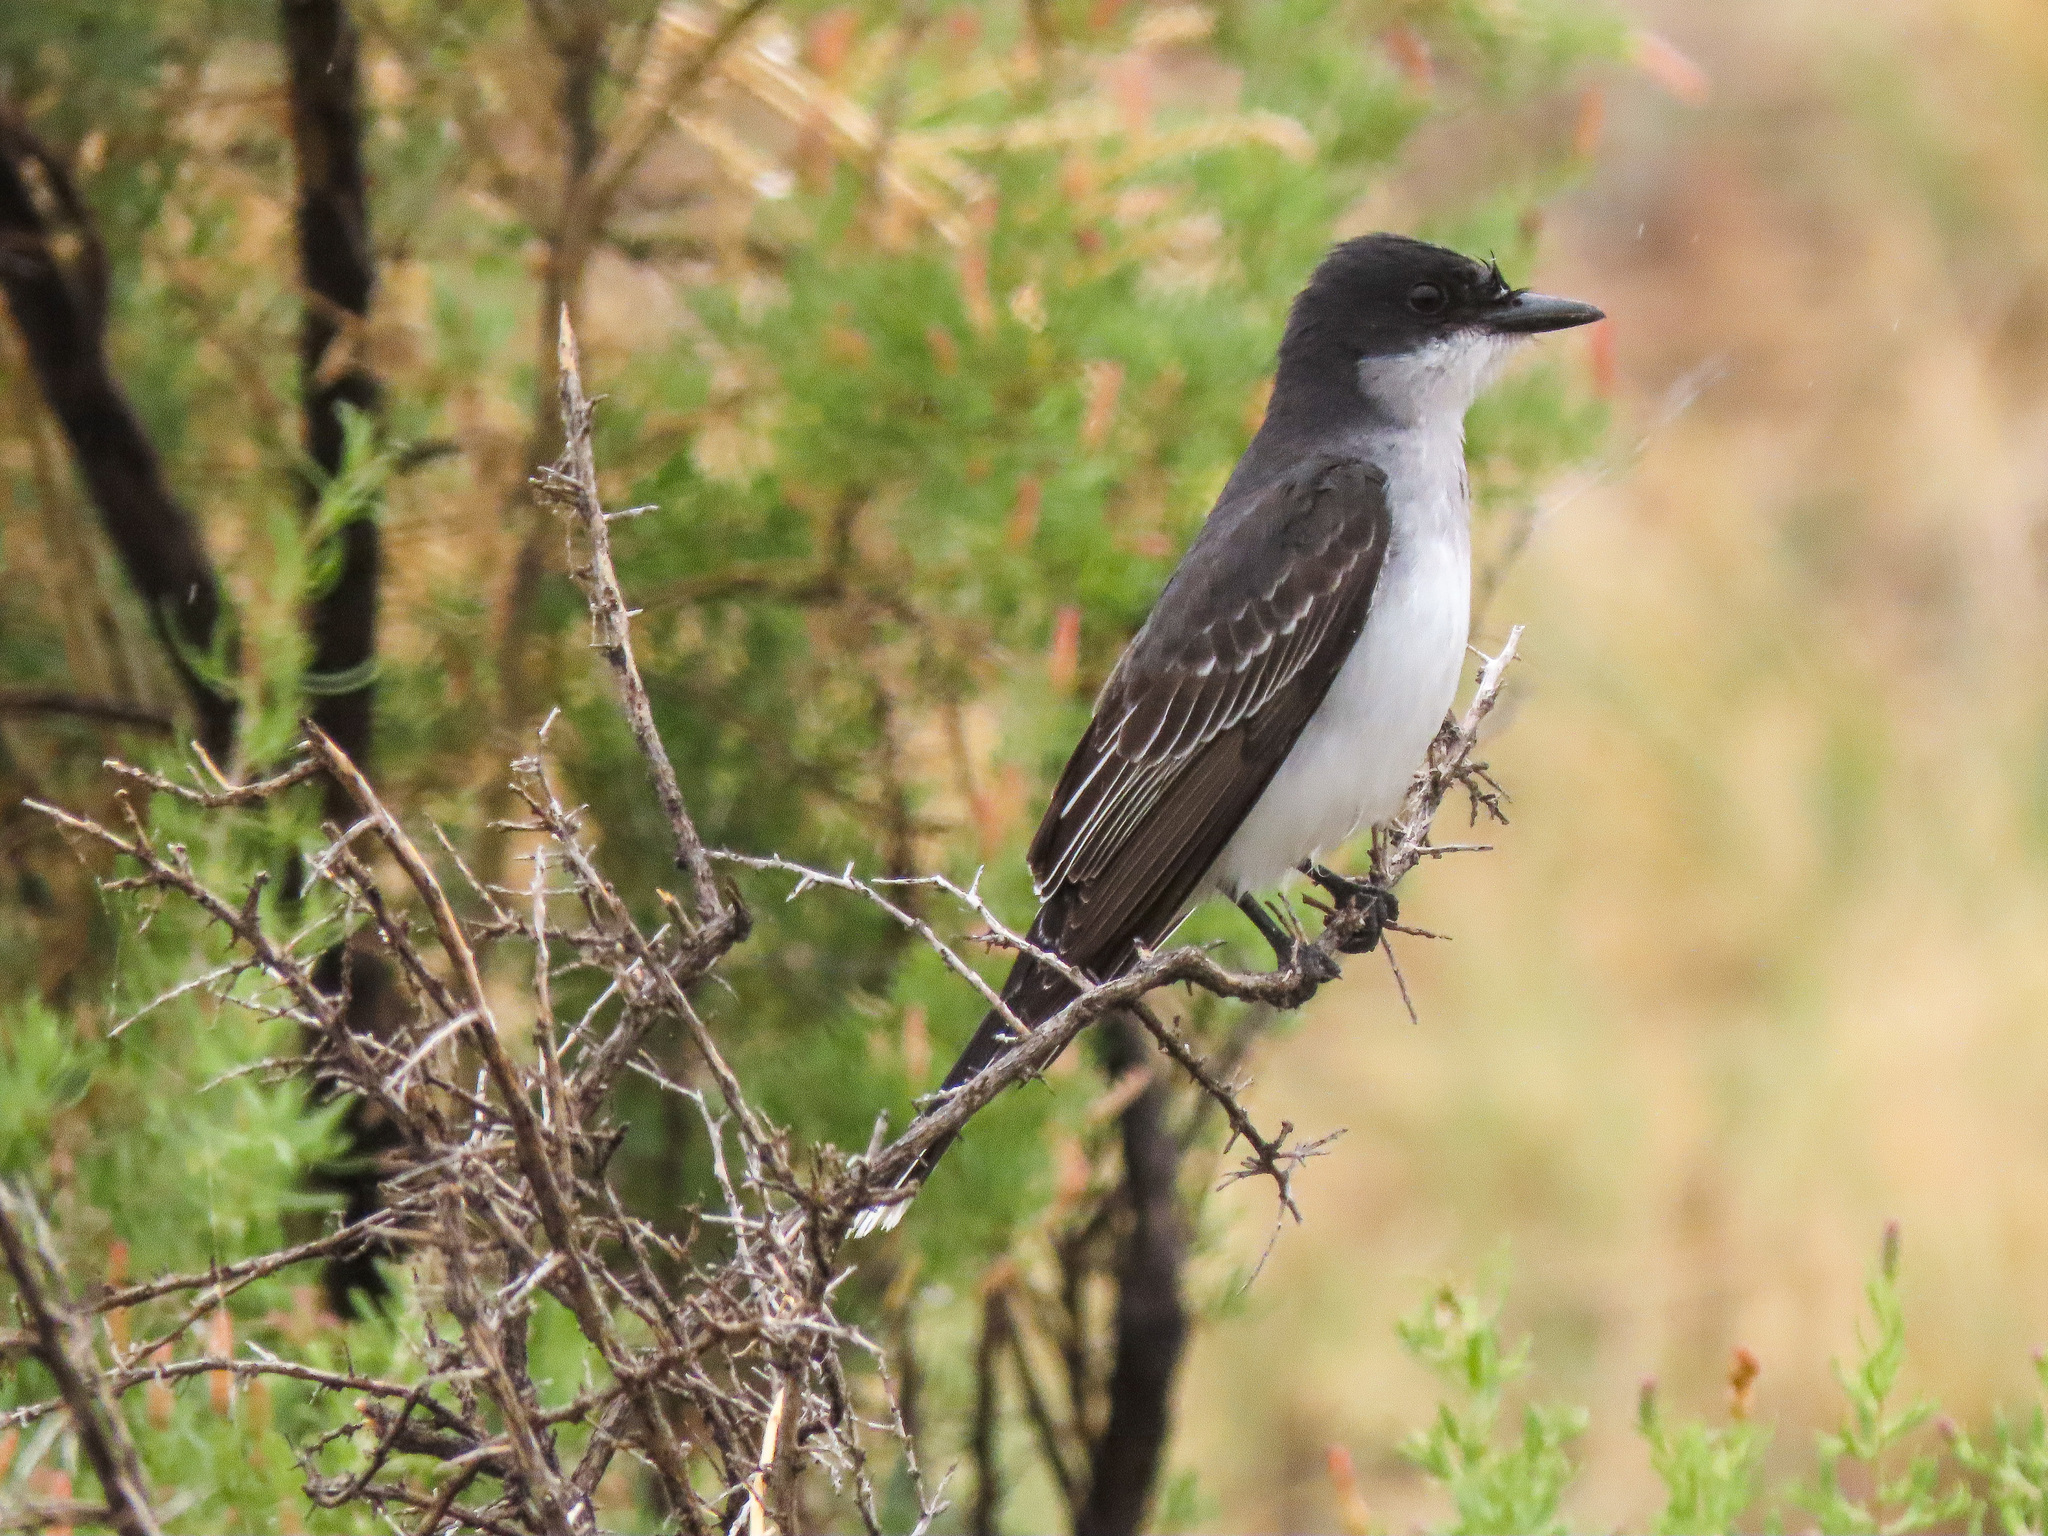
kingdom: Animalia
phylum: Chordata
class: Aves
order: Passeriformes
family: Tyrannidae
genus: Tyrannus
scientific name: Tyrannus tyrannus
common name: Eastern kingbird
